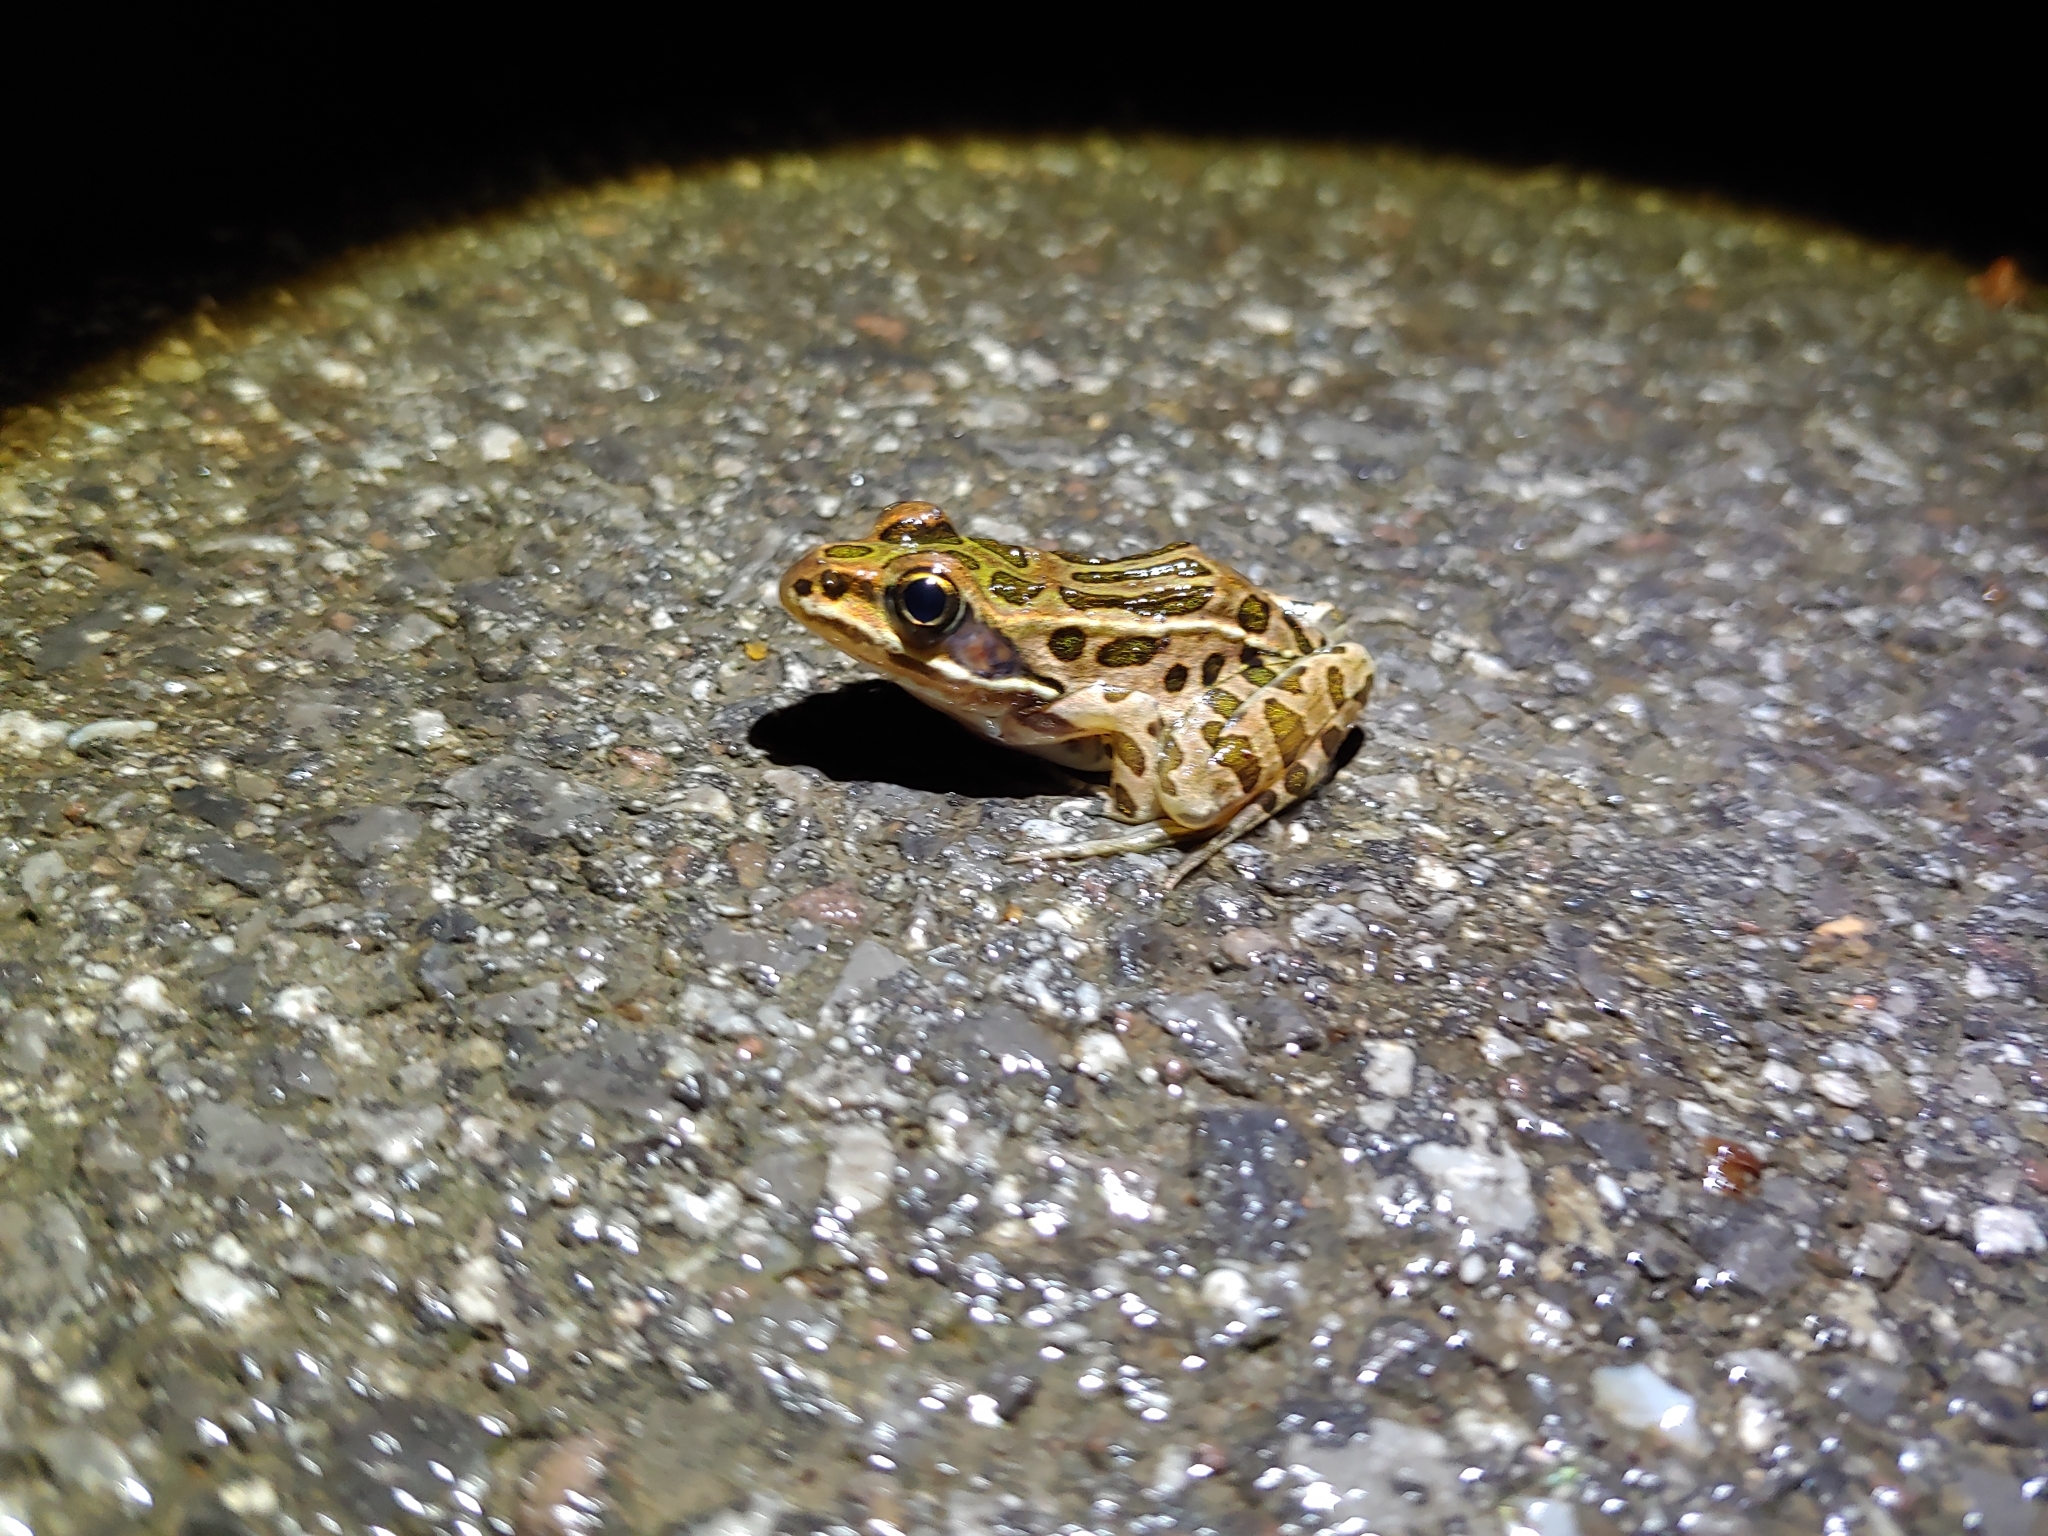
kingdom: Animalia
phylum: Chordata
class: Amphibia
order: Anura
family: Ranidae
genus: Lithobates
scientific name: Lithobates pipiens
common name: Northern leopard frog
